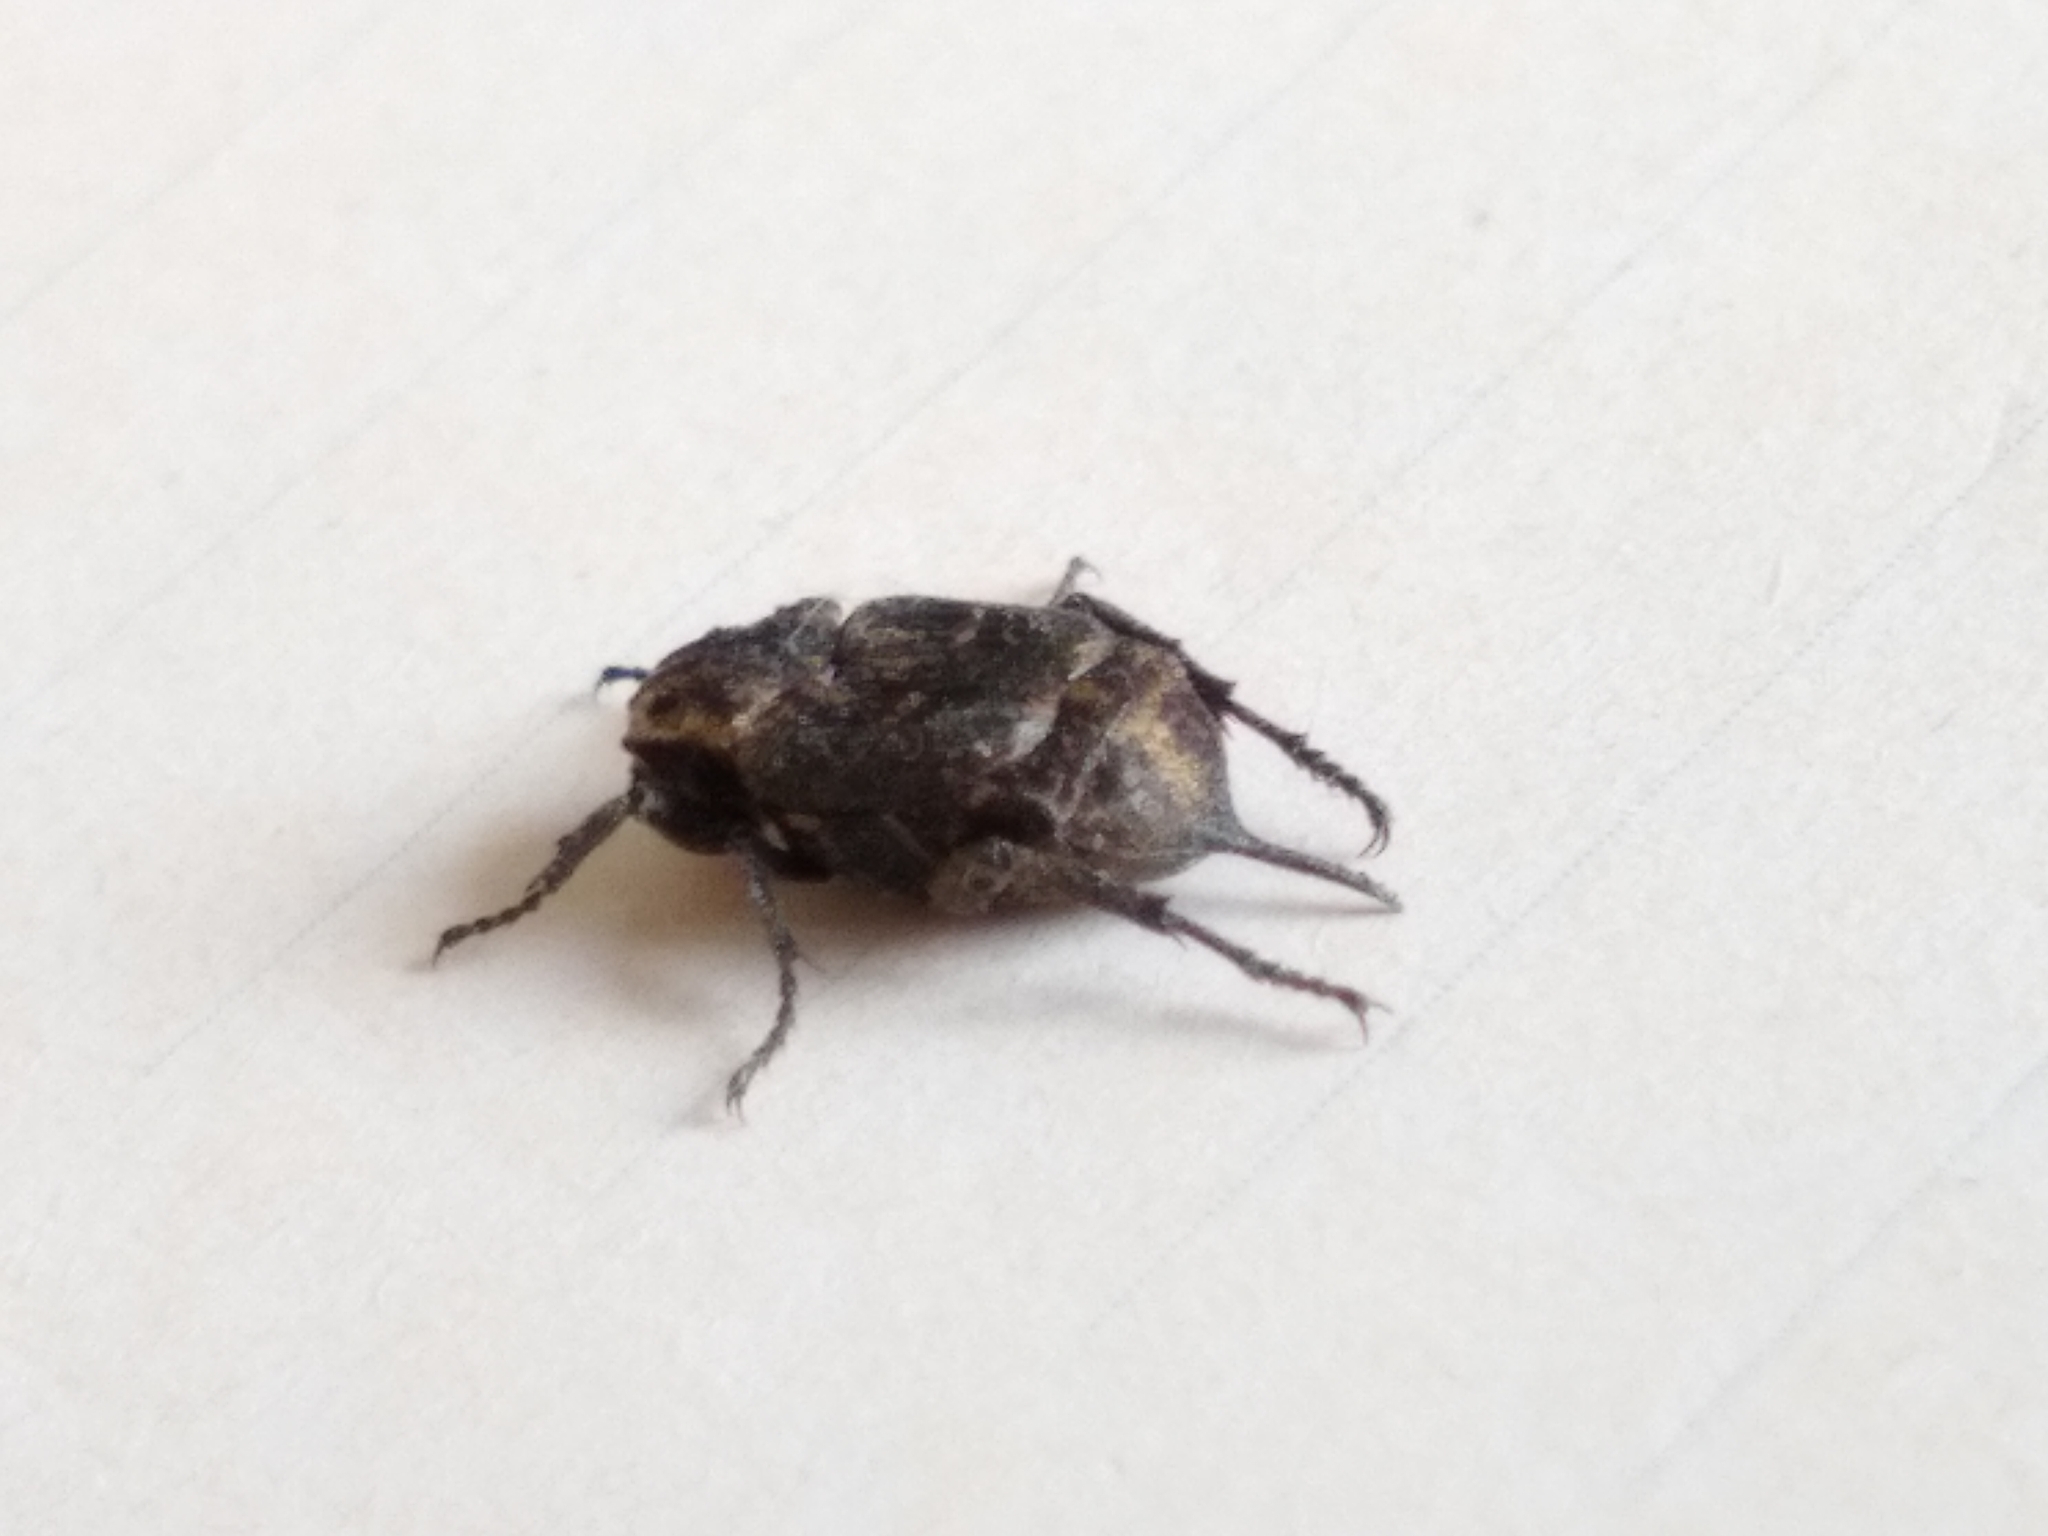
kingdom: Animalia
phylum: Arthropoda
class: Insecta
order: Coleoptera
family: Scarabaeidae
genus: Valgus
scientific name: Valgus hemipterus
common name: Bug flower chafer
